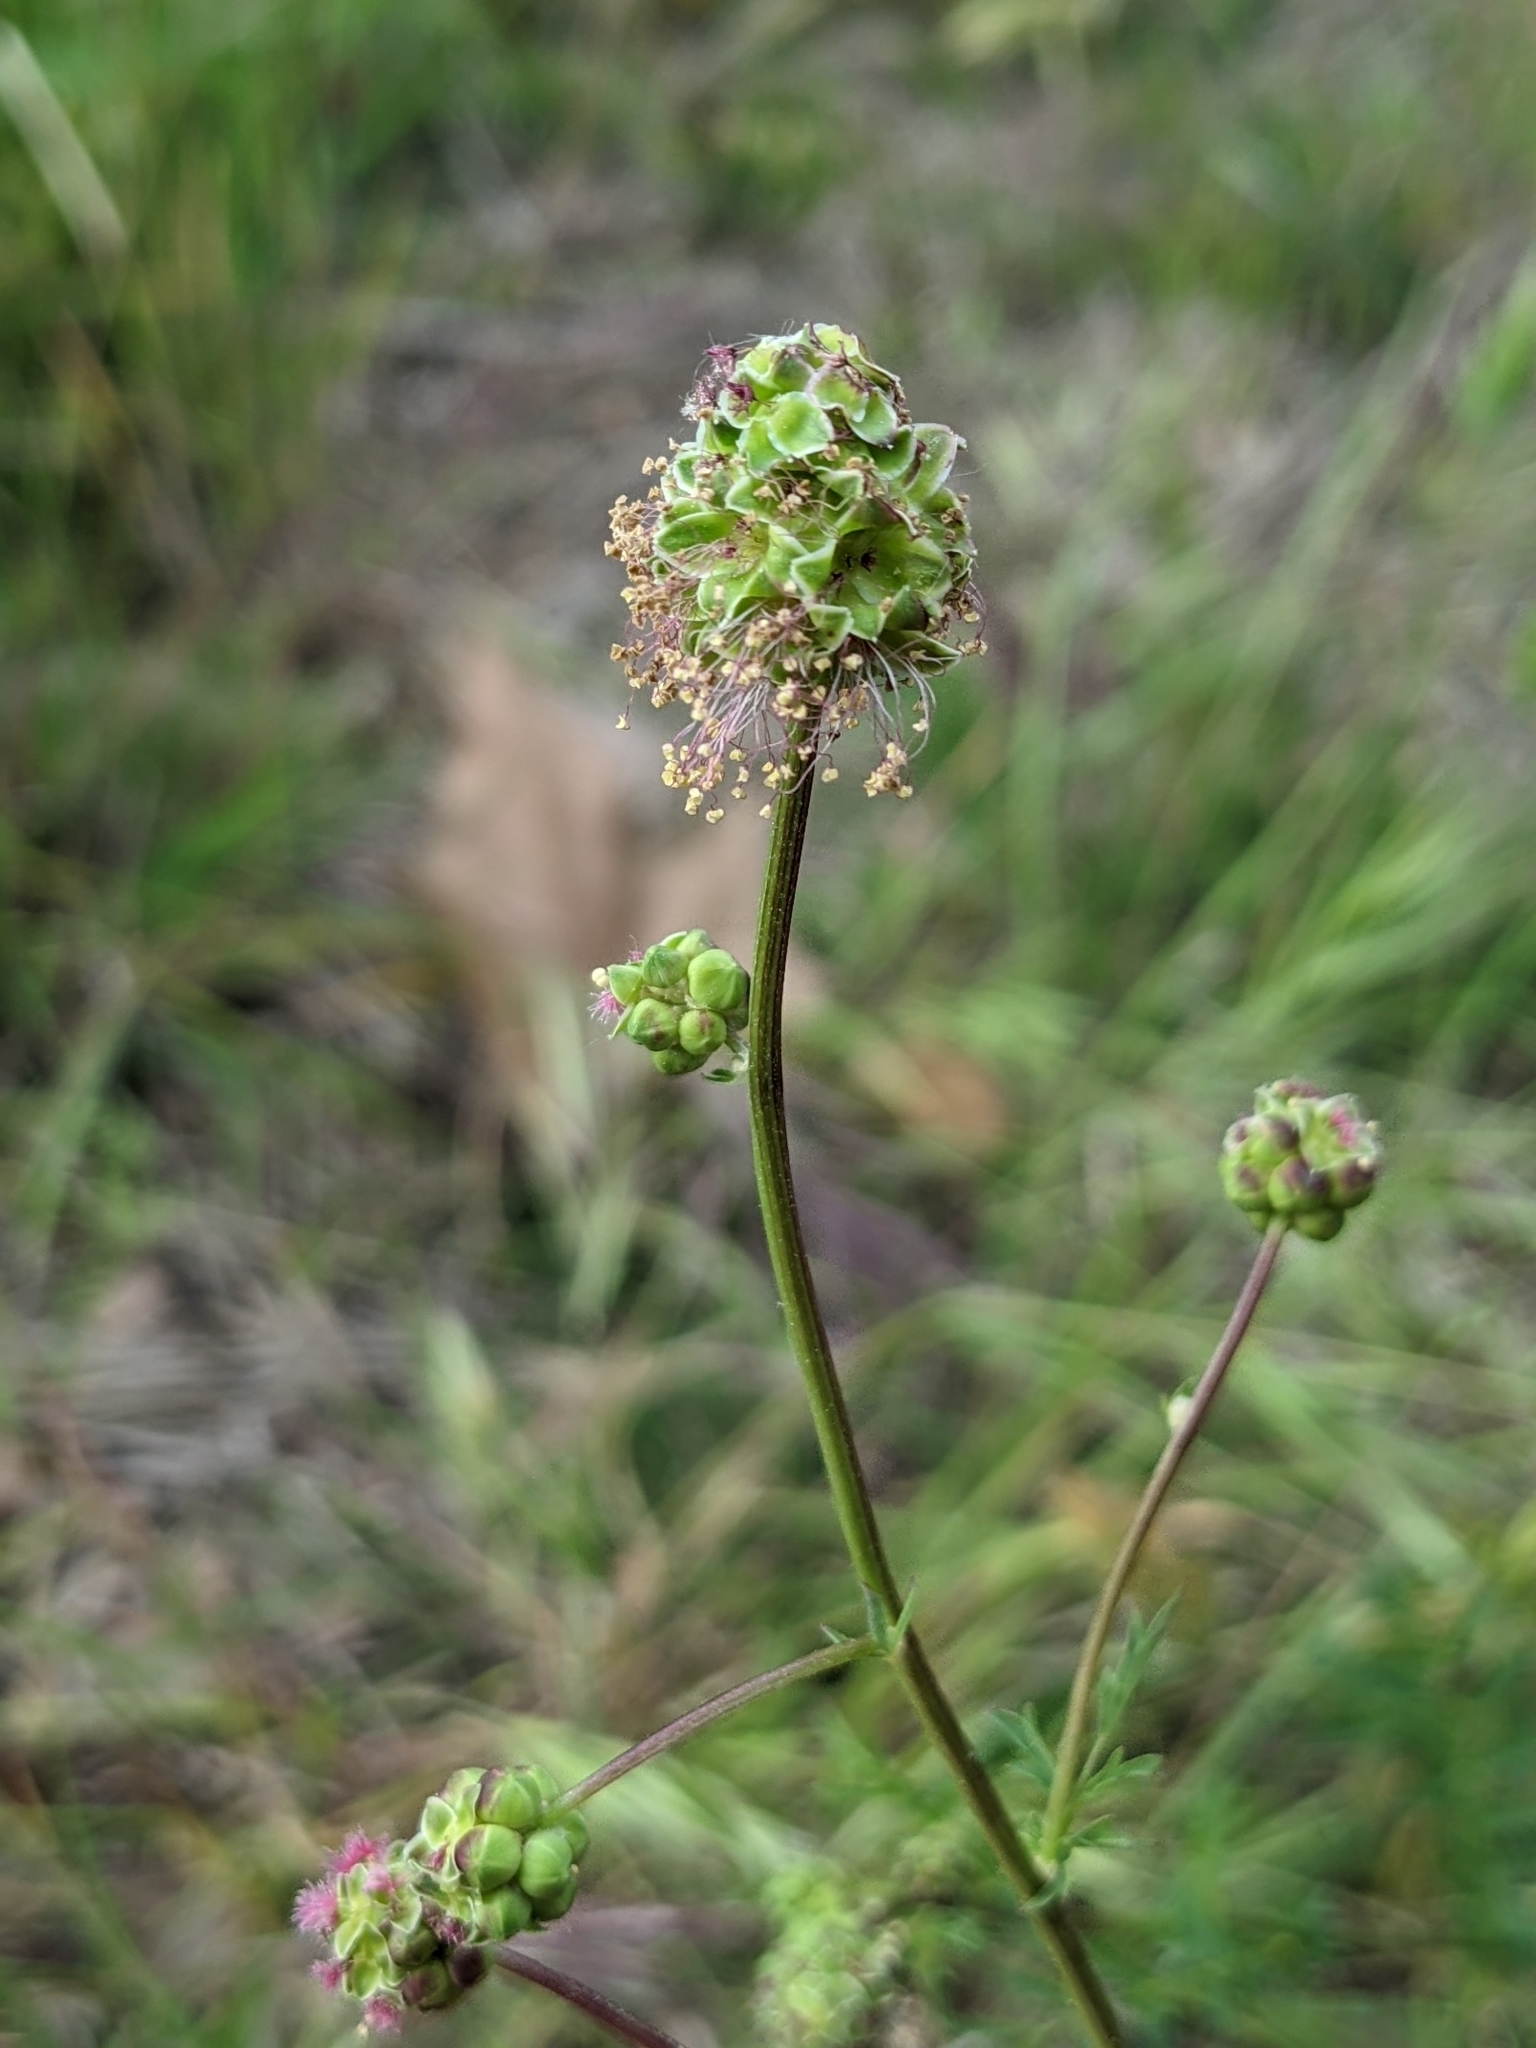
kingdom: Plantae
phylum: Tracheophyta
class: Magnoliopsida
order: Rosales
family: Rosaceae
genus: Poterium
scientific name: Poterium sanguisorba
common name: Salad burnet
